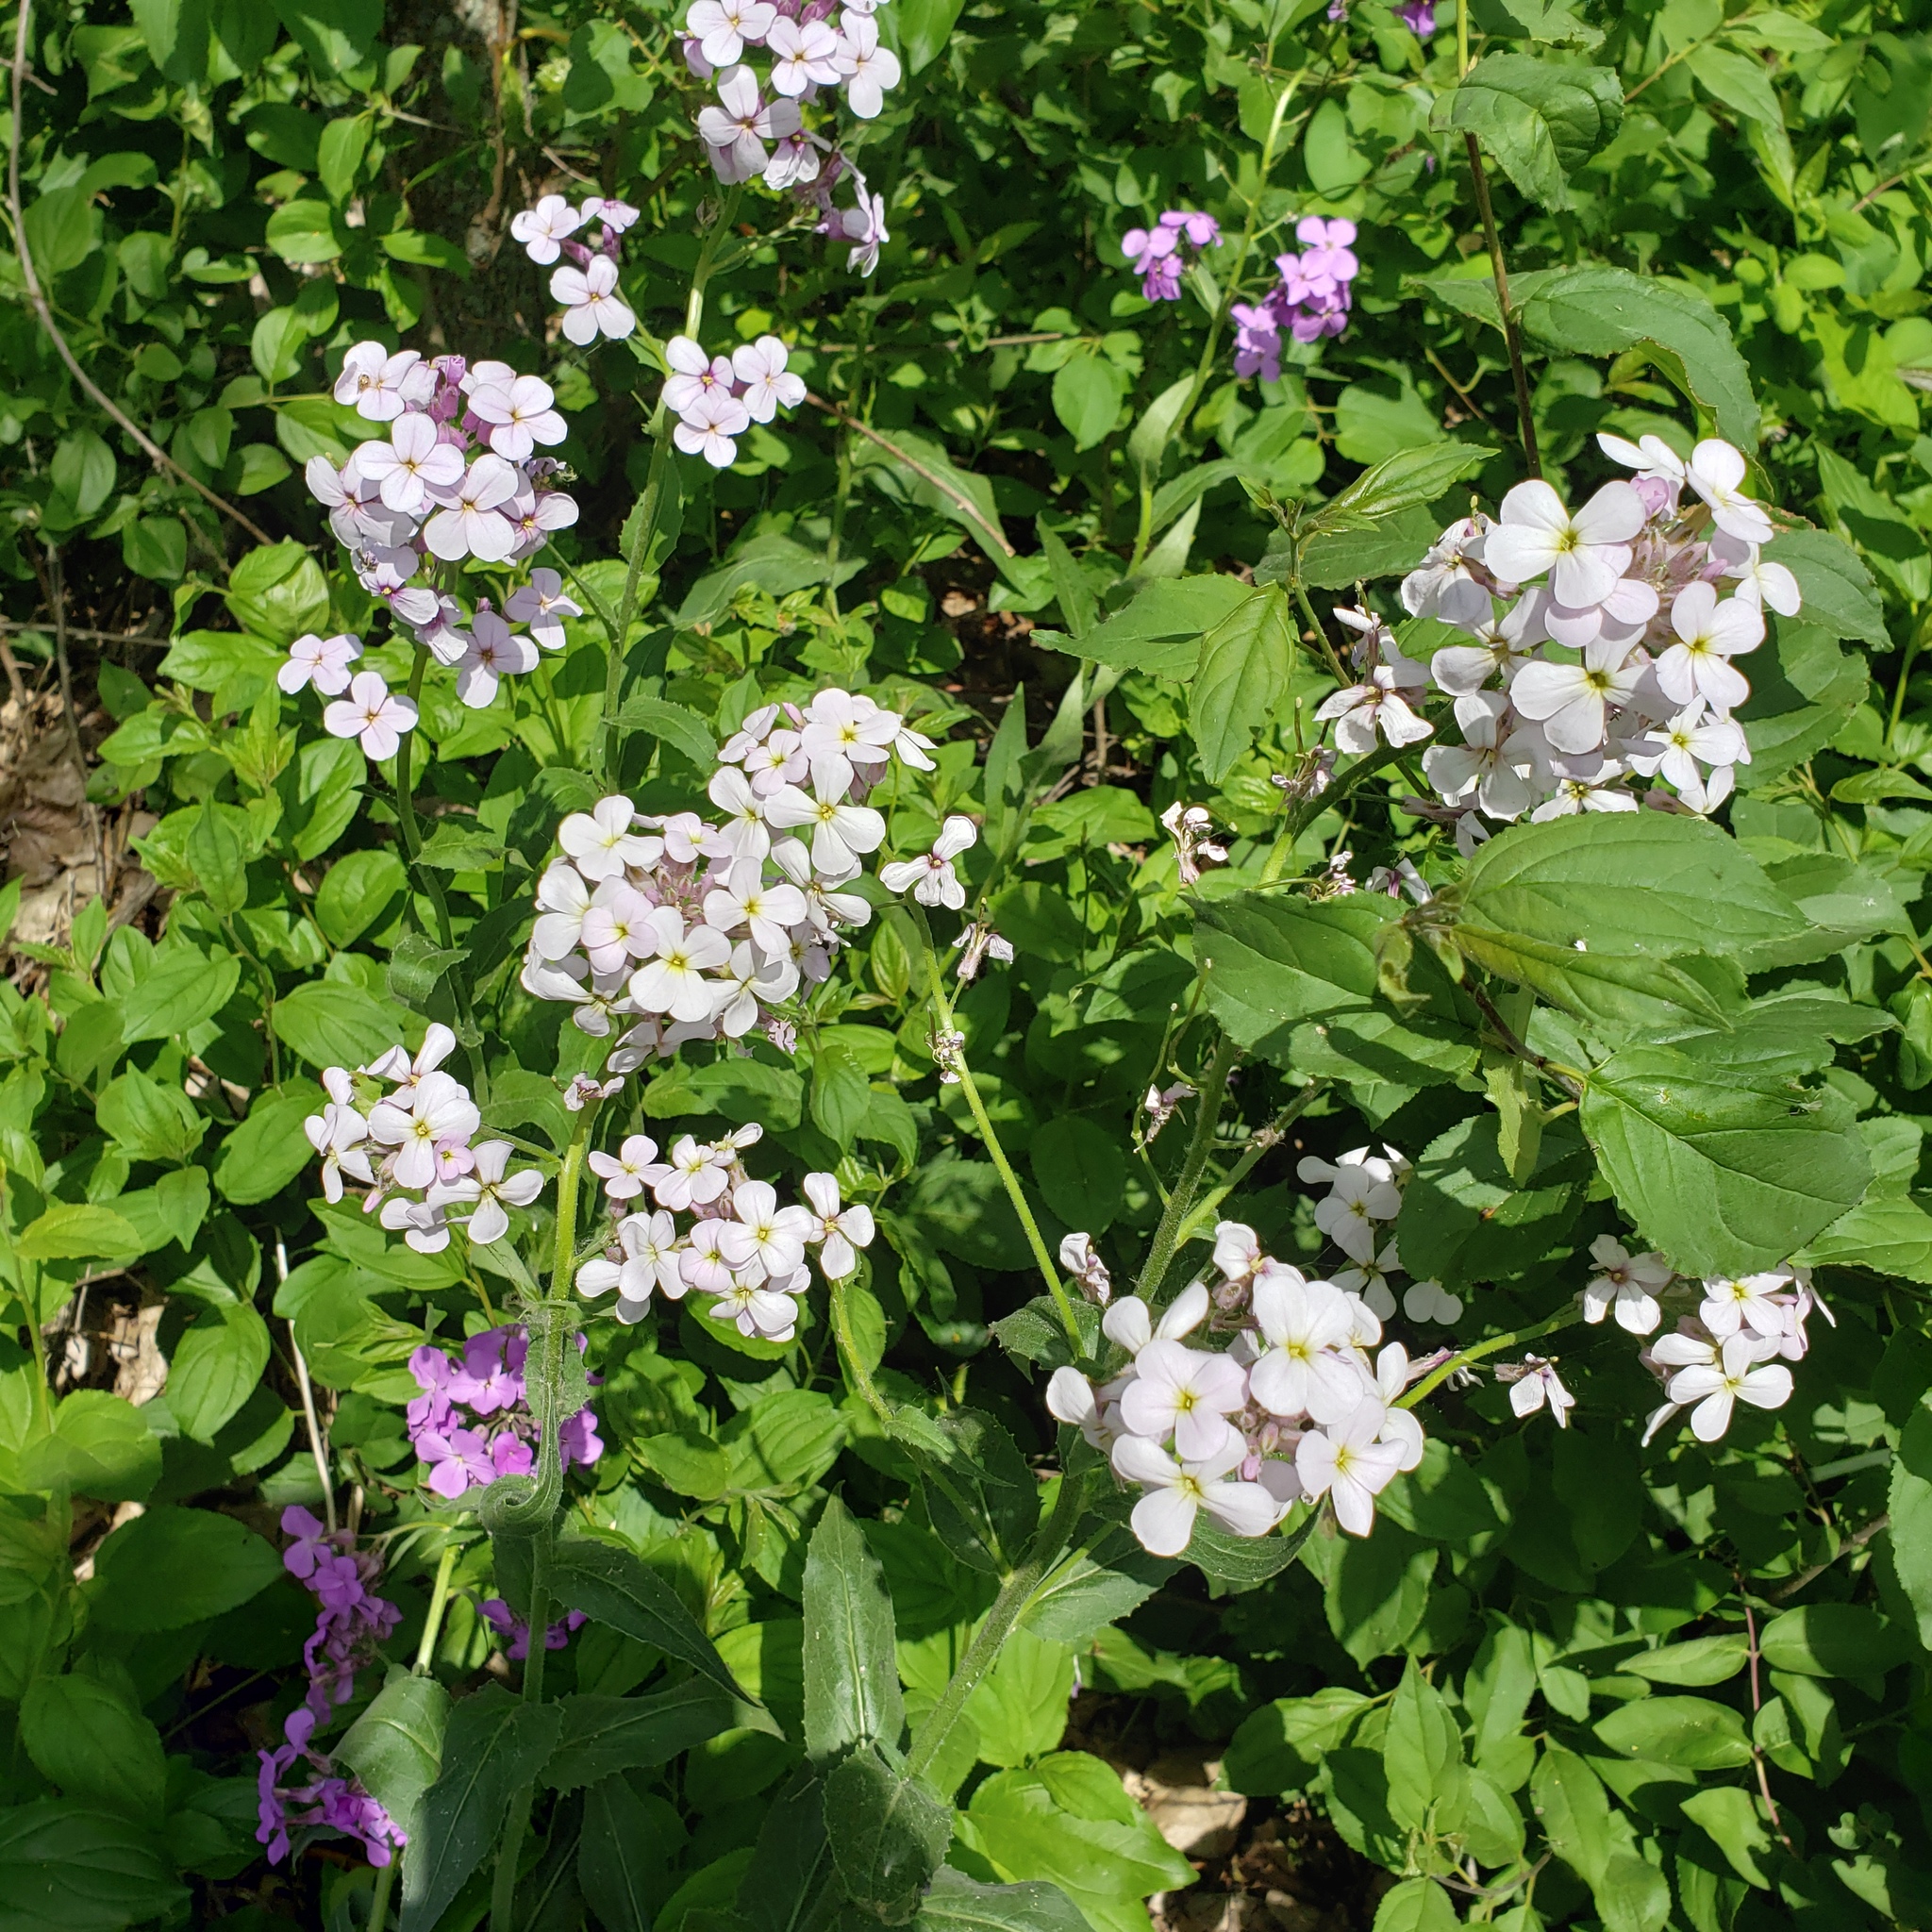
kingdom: Plantae
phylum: Tracheophyta
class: Magnoliopsida
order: Brassicales
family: Brassicaceae
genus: Hesperis
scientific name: Hesperis matronalis
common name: Dame's-violet
